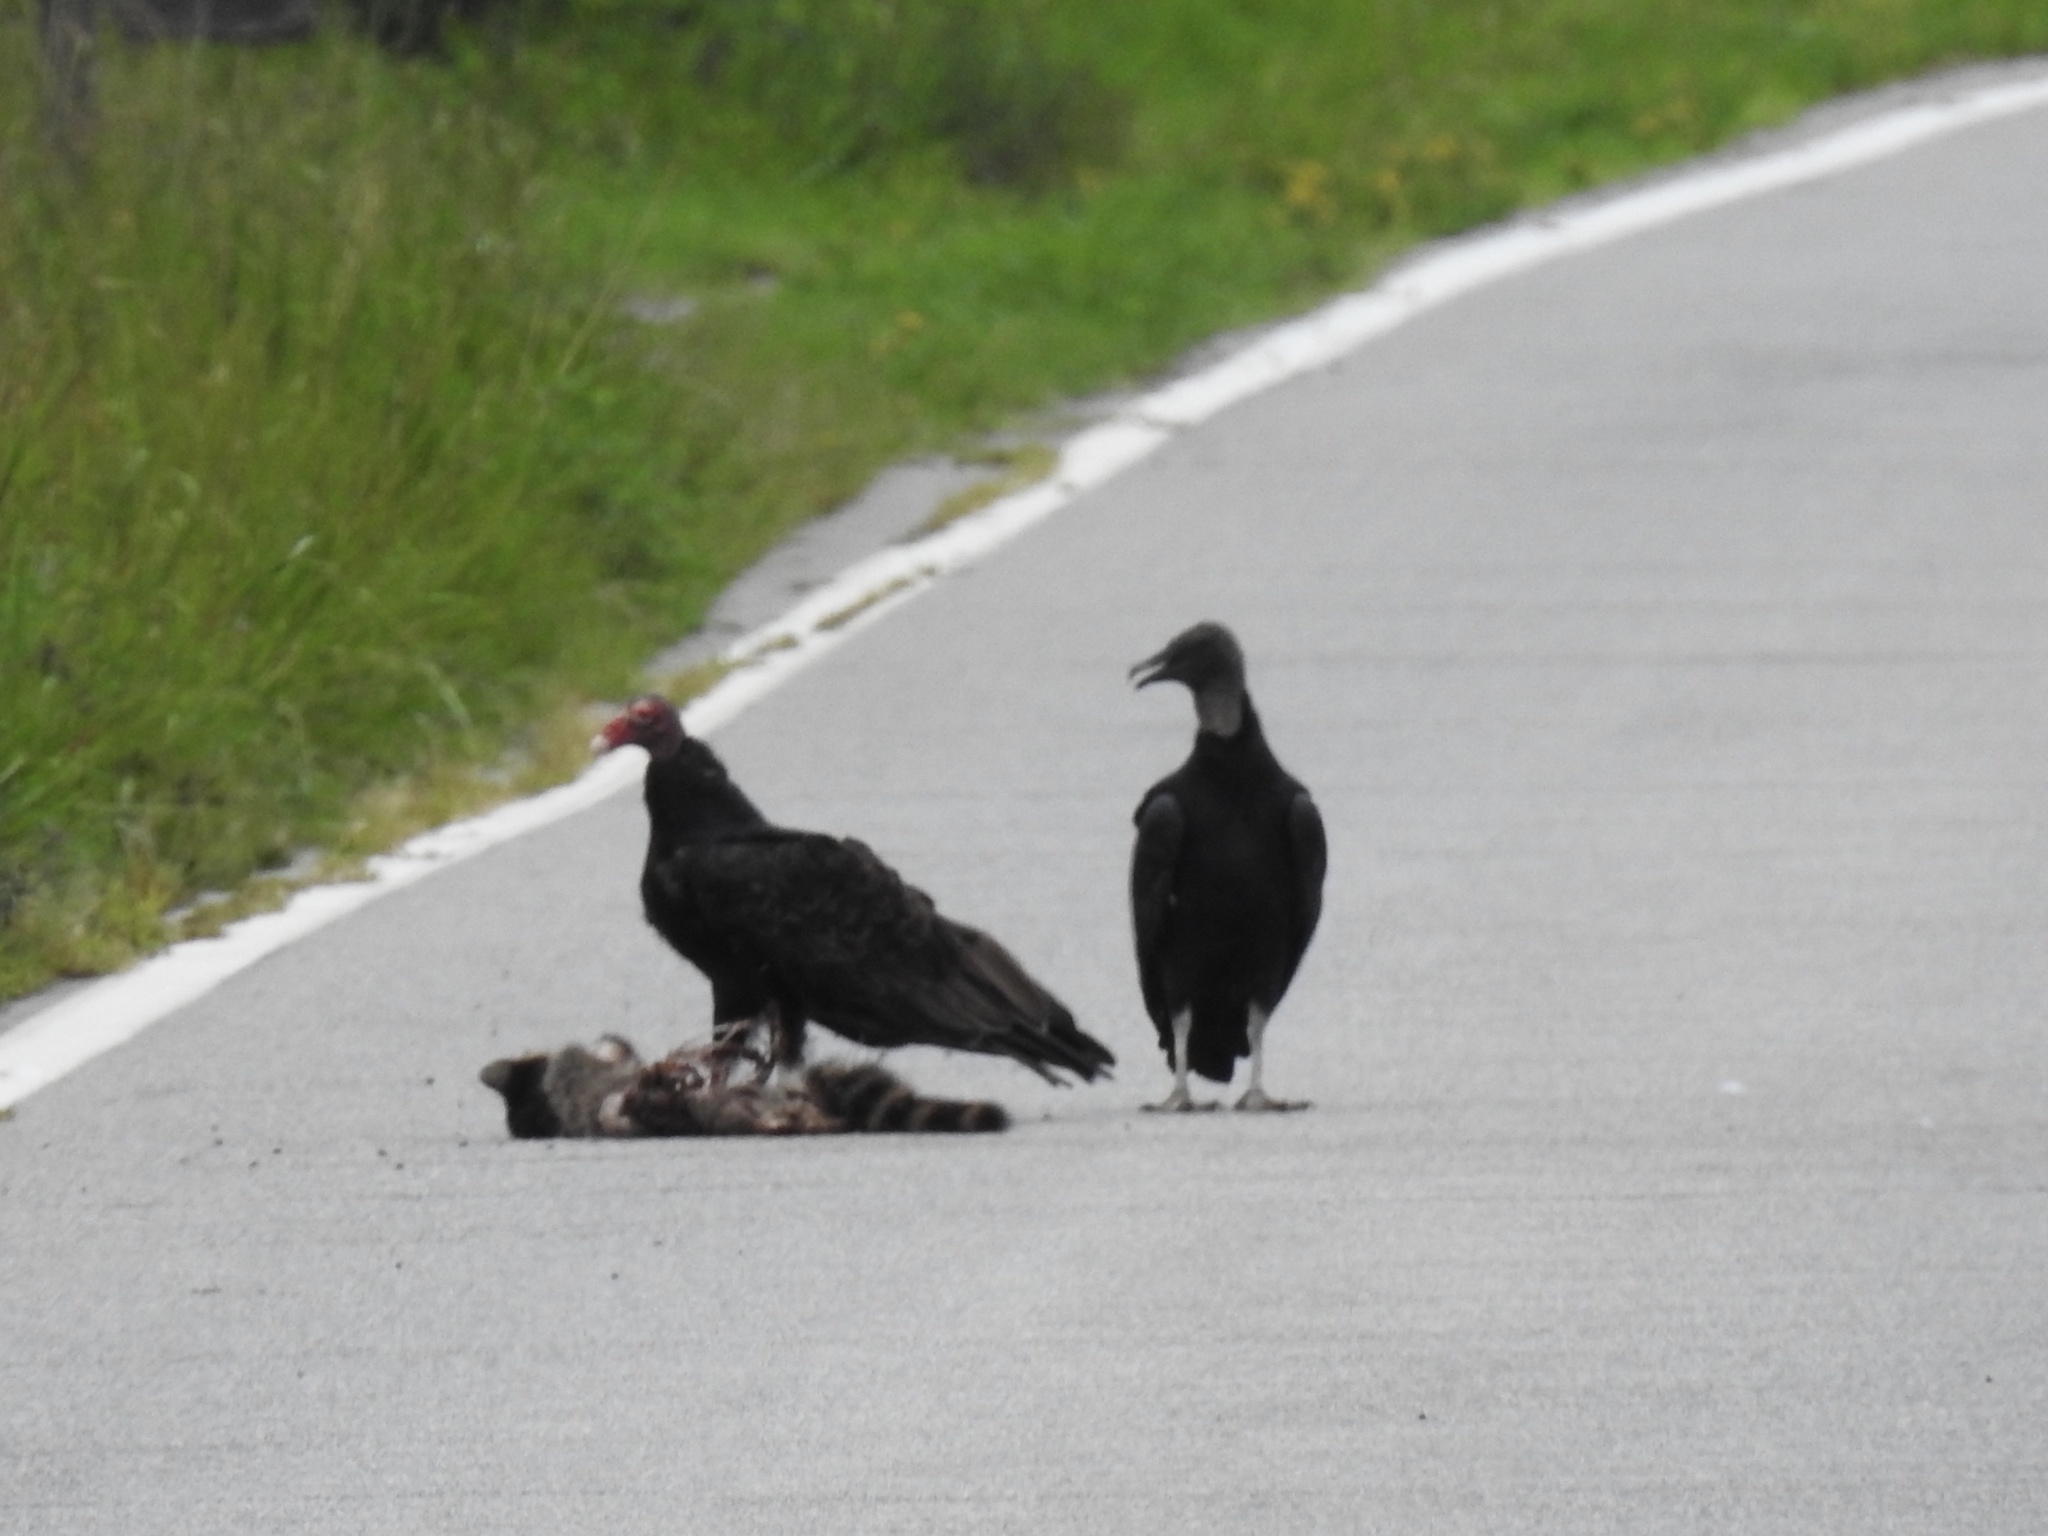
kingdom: Animalia
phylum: Chordata
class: Aves
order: Accipitriformes
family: Cathartidae
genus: Cathartes
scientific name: Cathartes aura
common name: Turkey vulture
